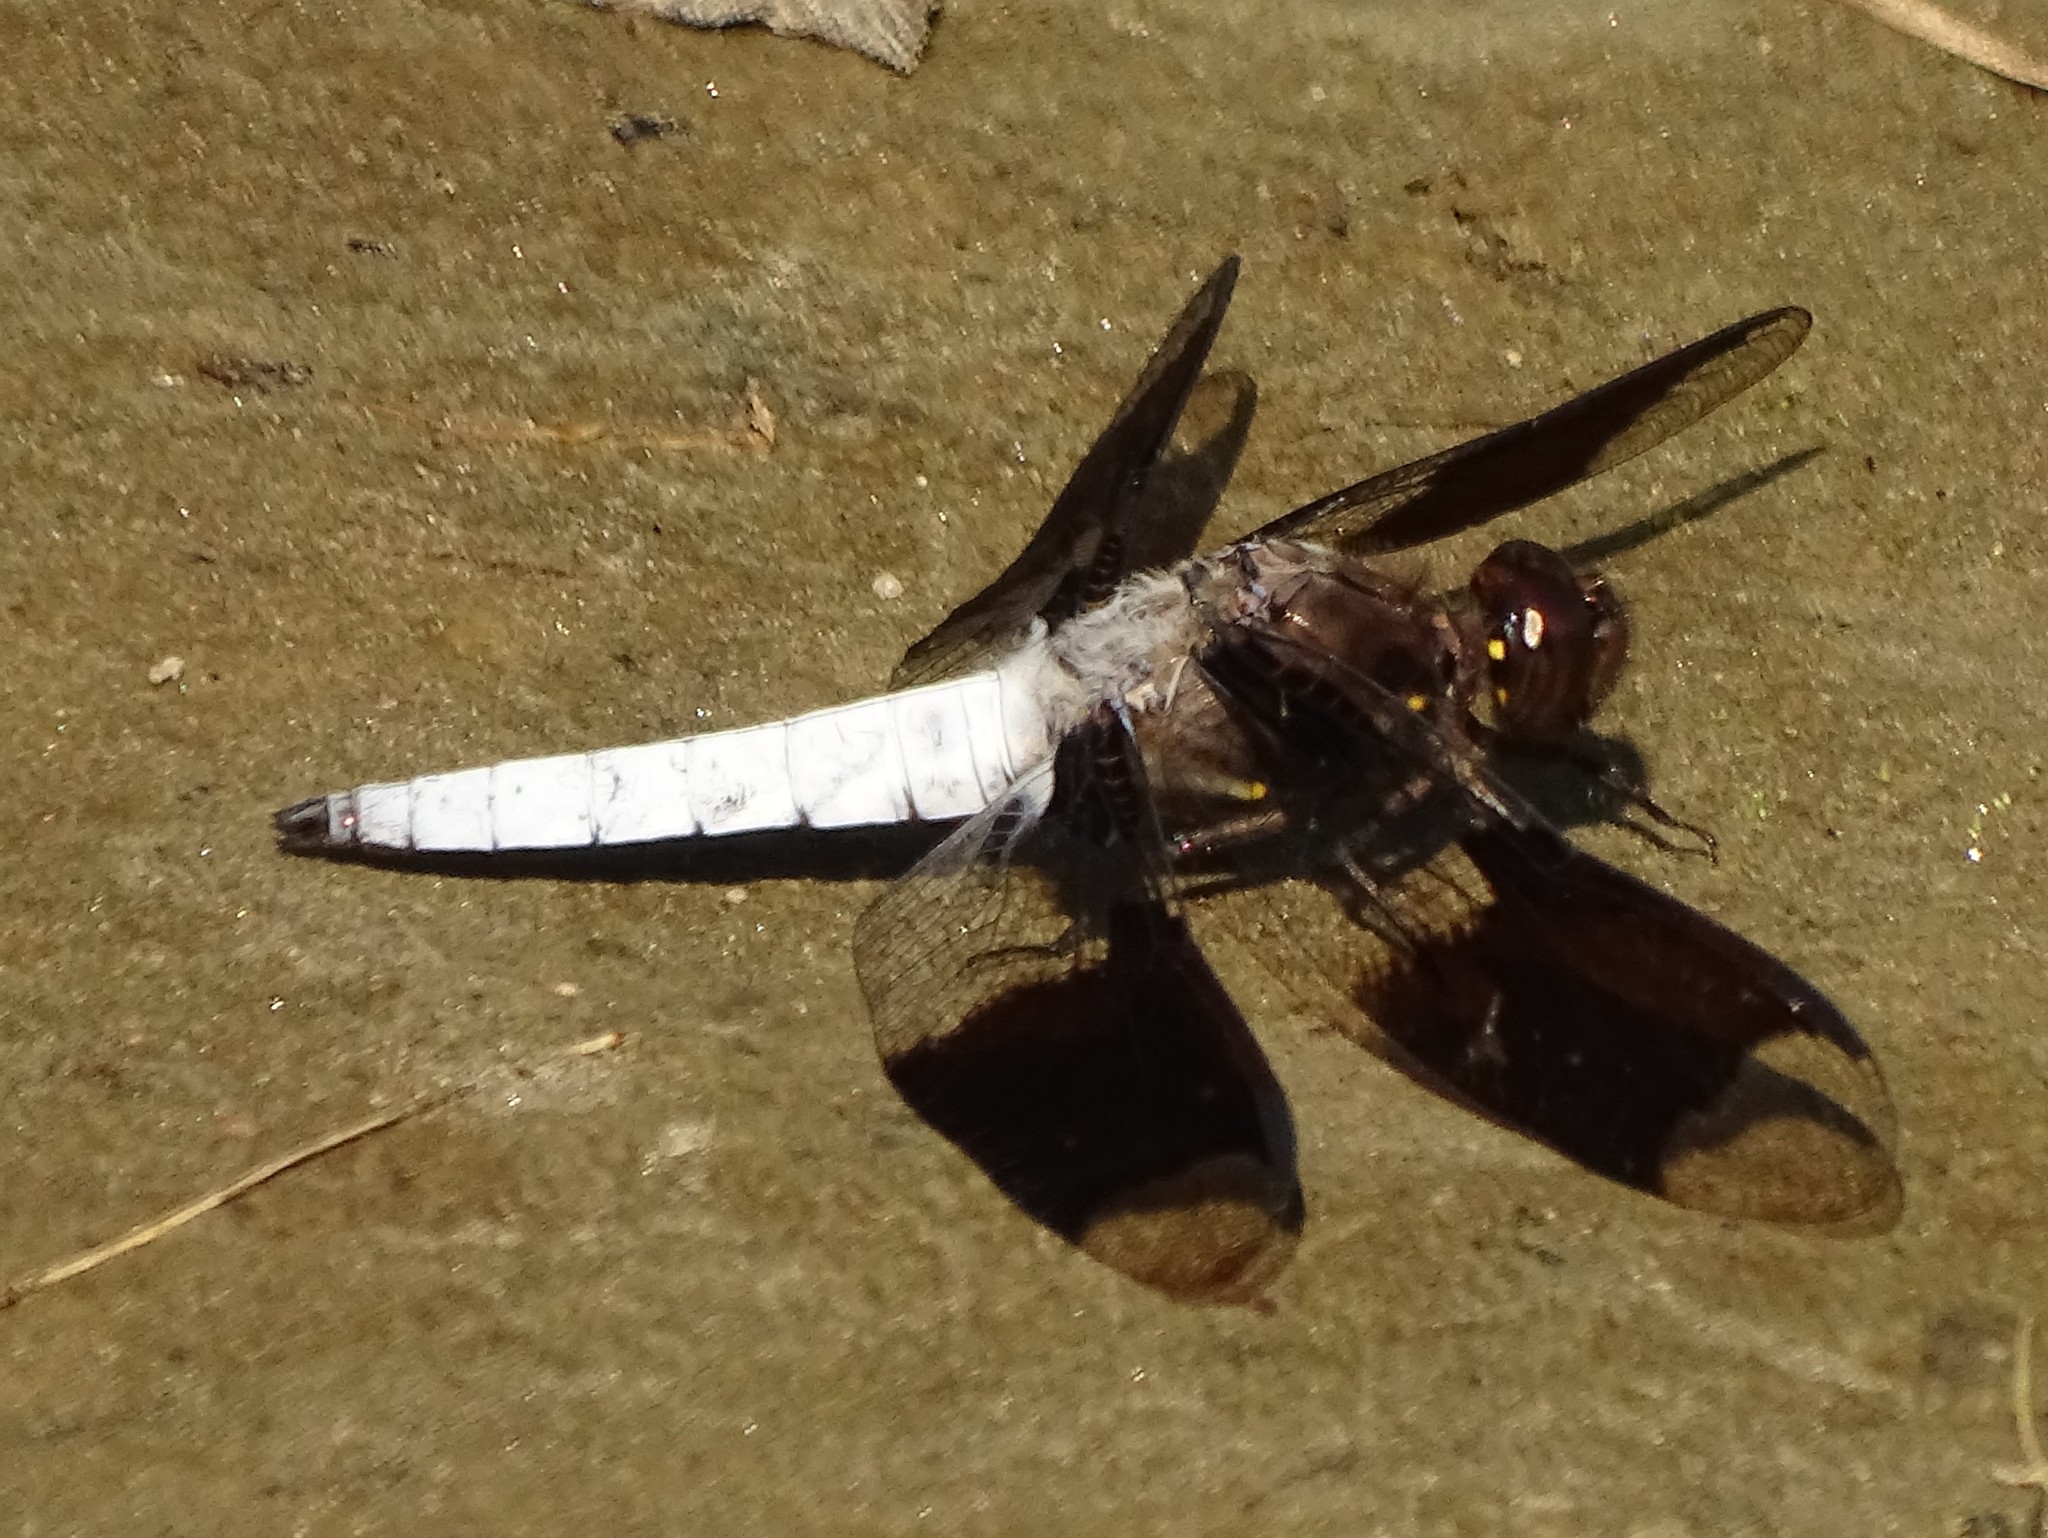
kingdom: Animalia
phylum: Arthropoda
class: Insecta
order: Odonata
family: Libellulidae
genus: Plathemis
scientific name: Plathemis lydia
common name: Common whitetail
